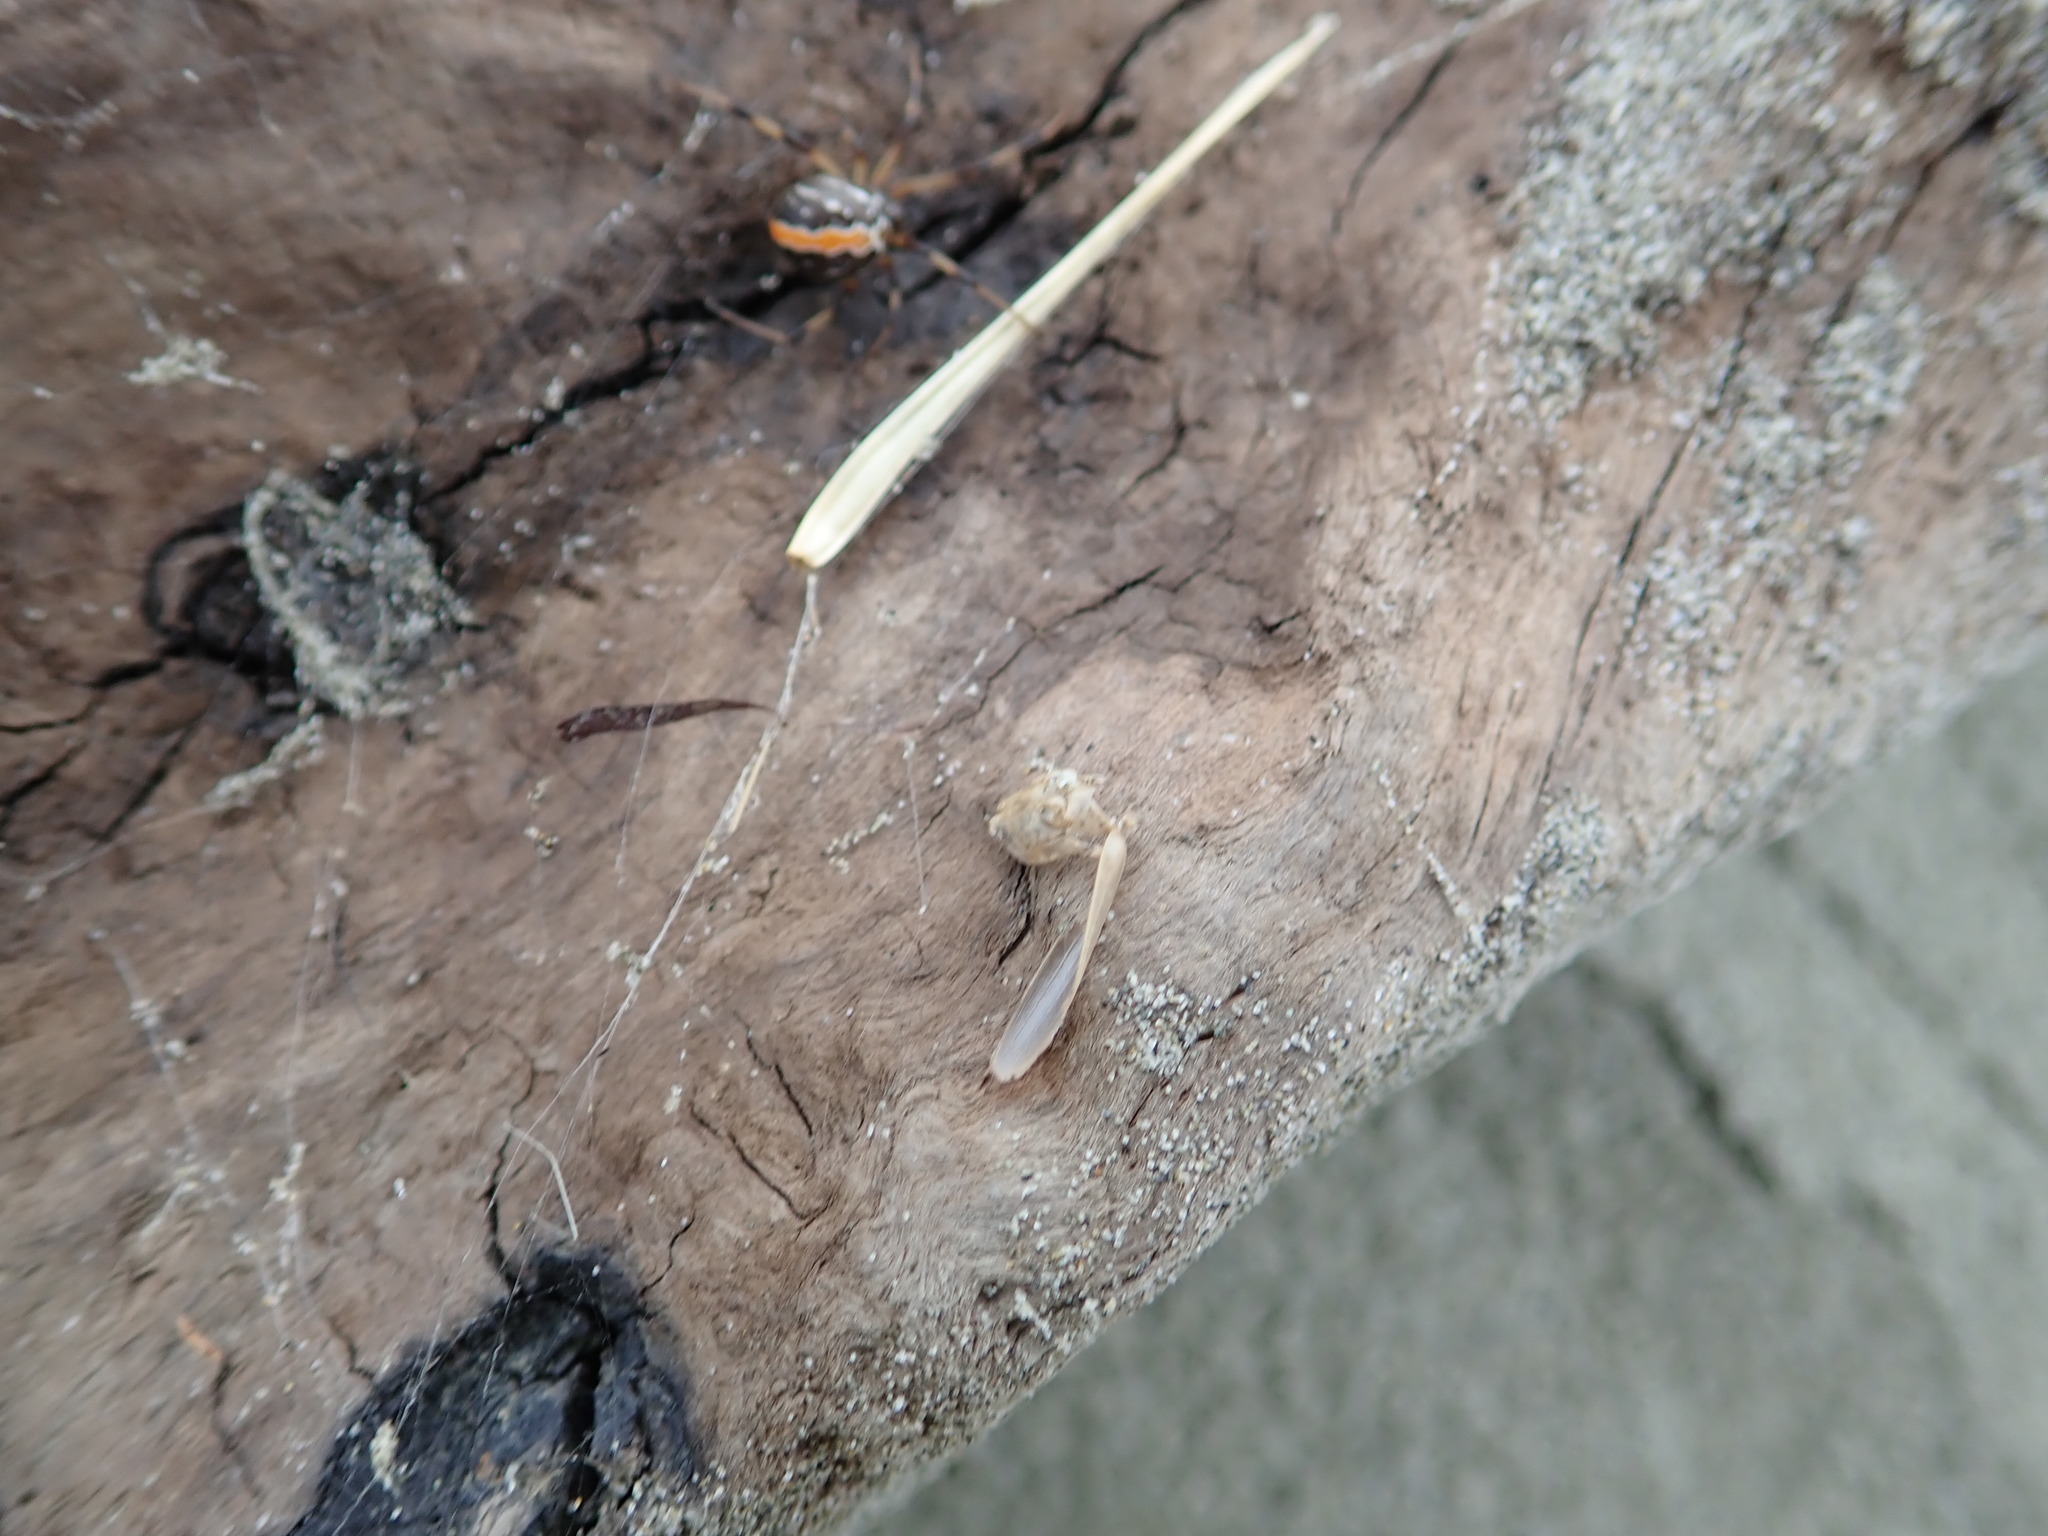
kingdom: Animalia
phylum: Arthropoda
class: Arachnida
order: Araneae
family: Theridiidae
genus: Latrodectus
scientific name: Latrodectus katipo
